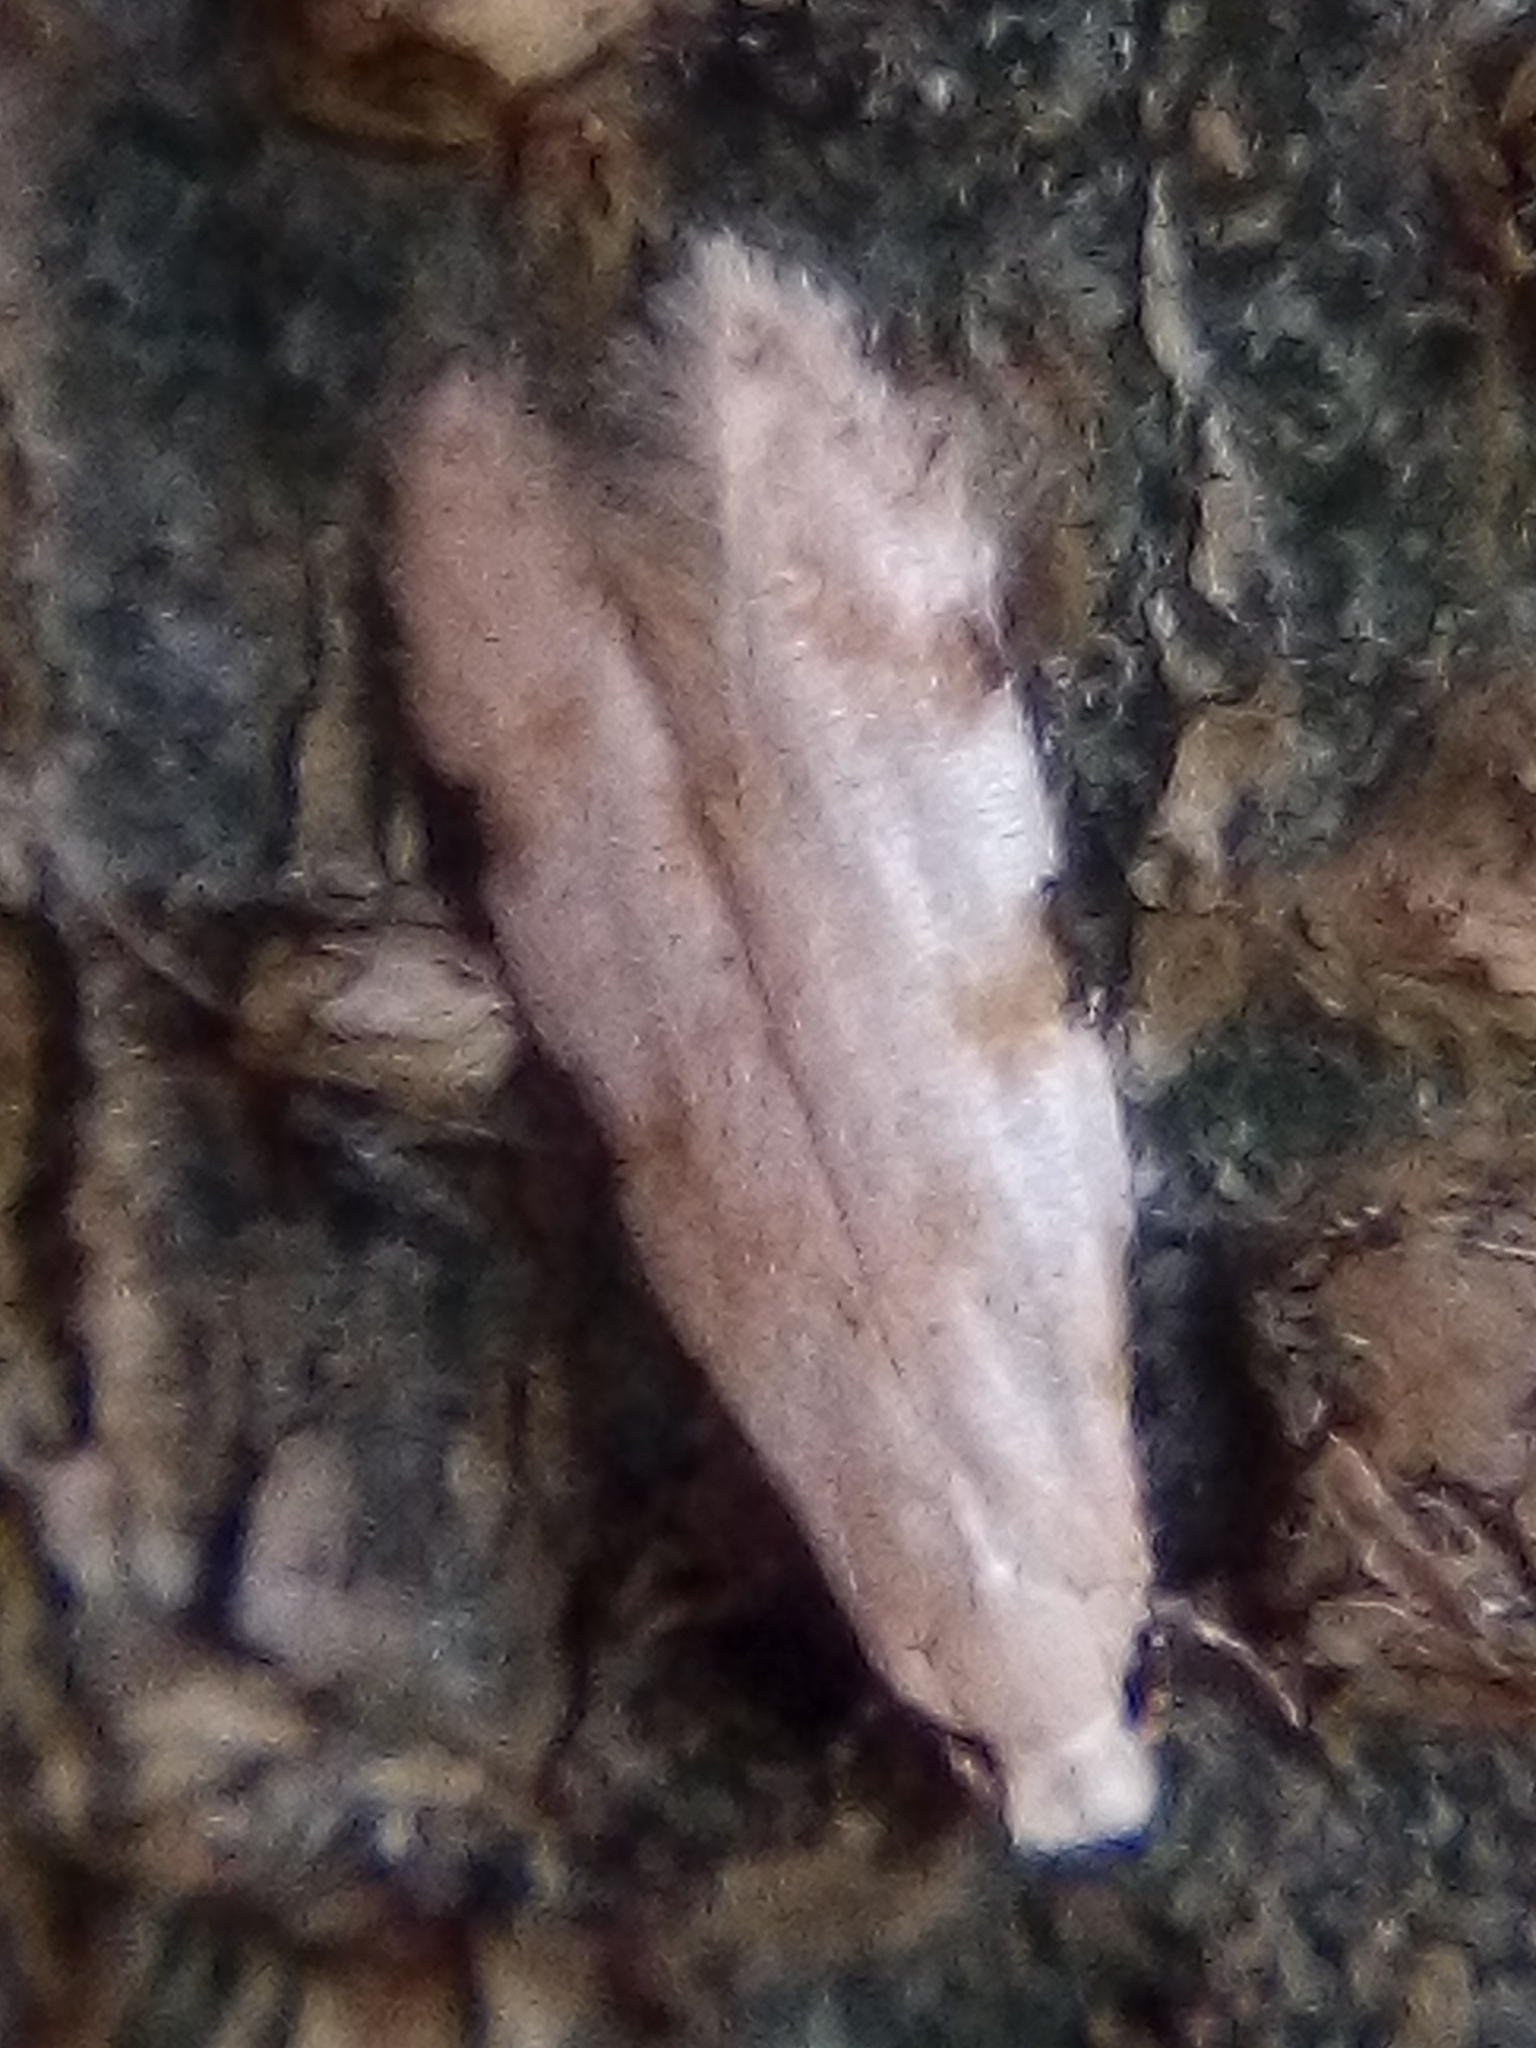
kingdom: Animalia
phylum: Arthropoda
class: Insecta
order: Lepidoptera
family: Tineidae
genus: Endophthora
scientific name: Endophthora omogramma
